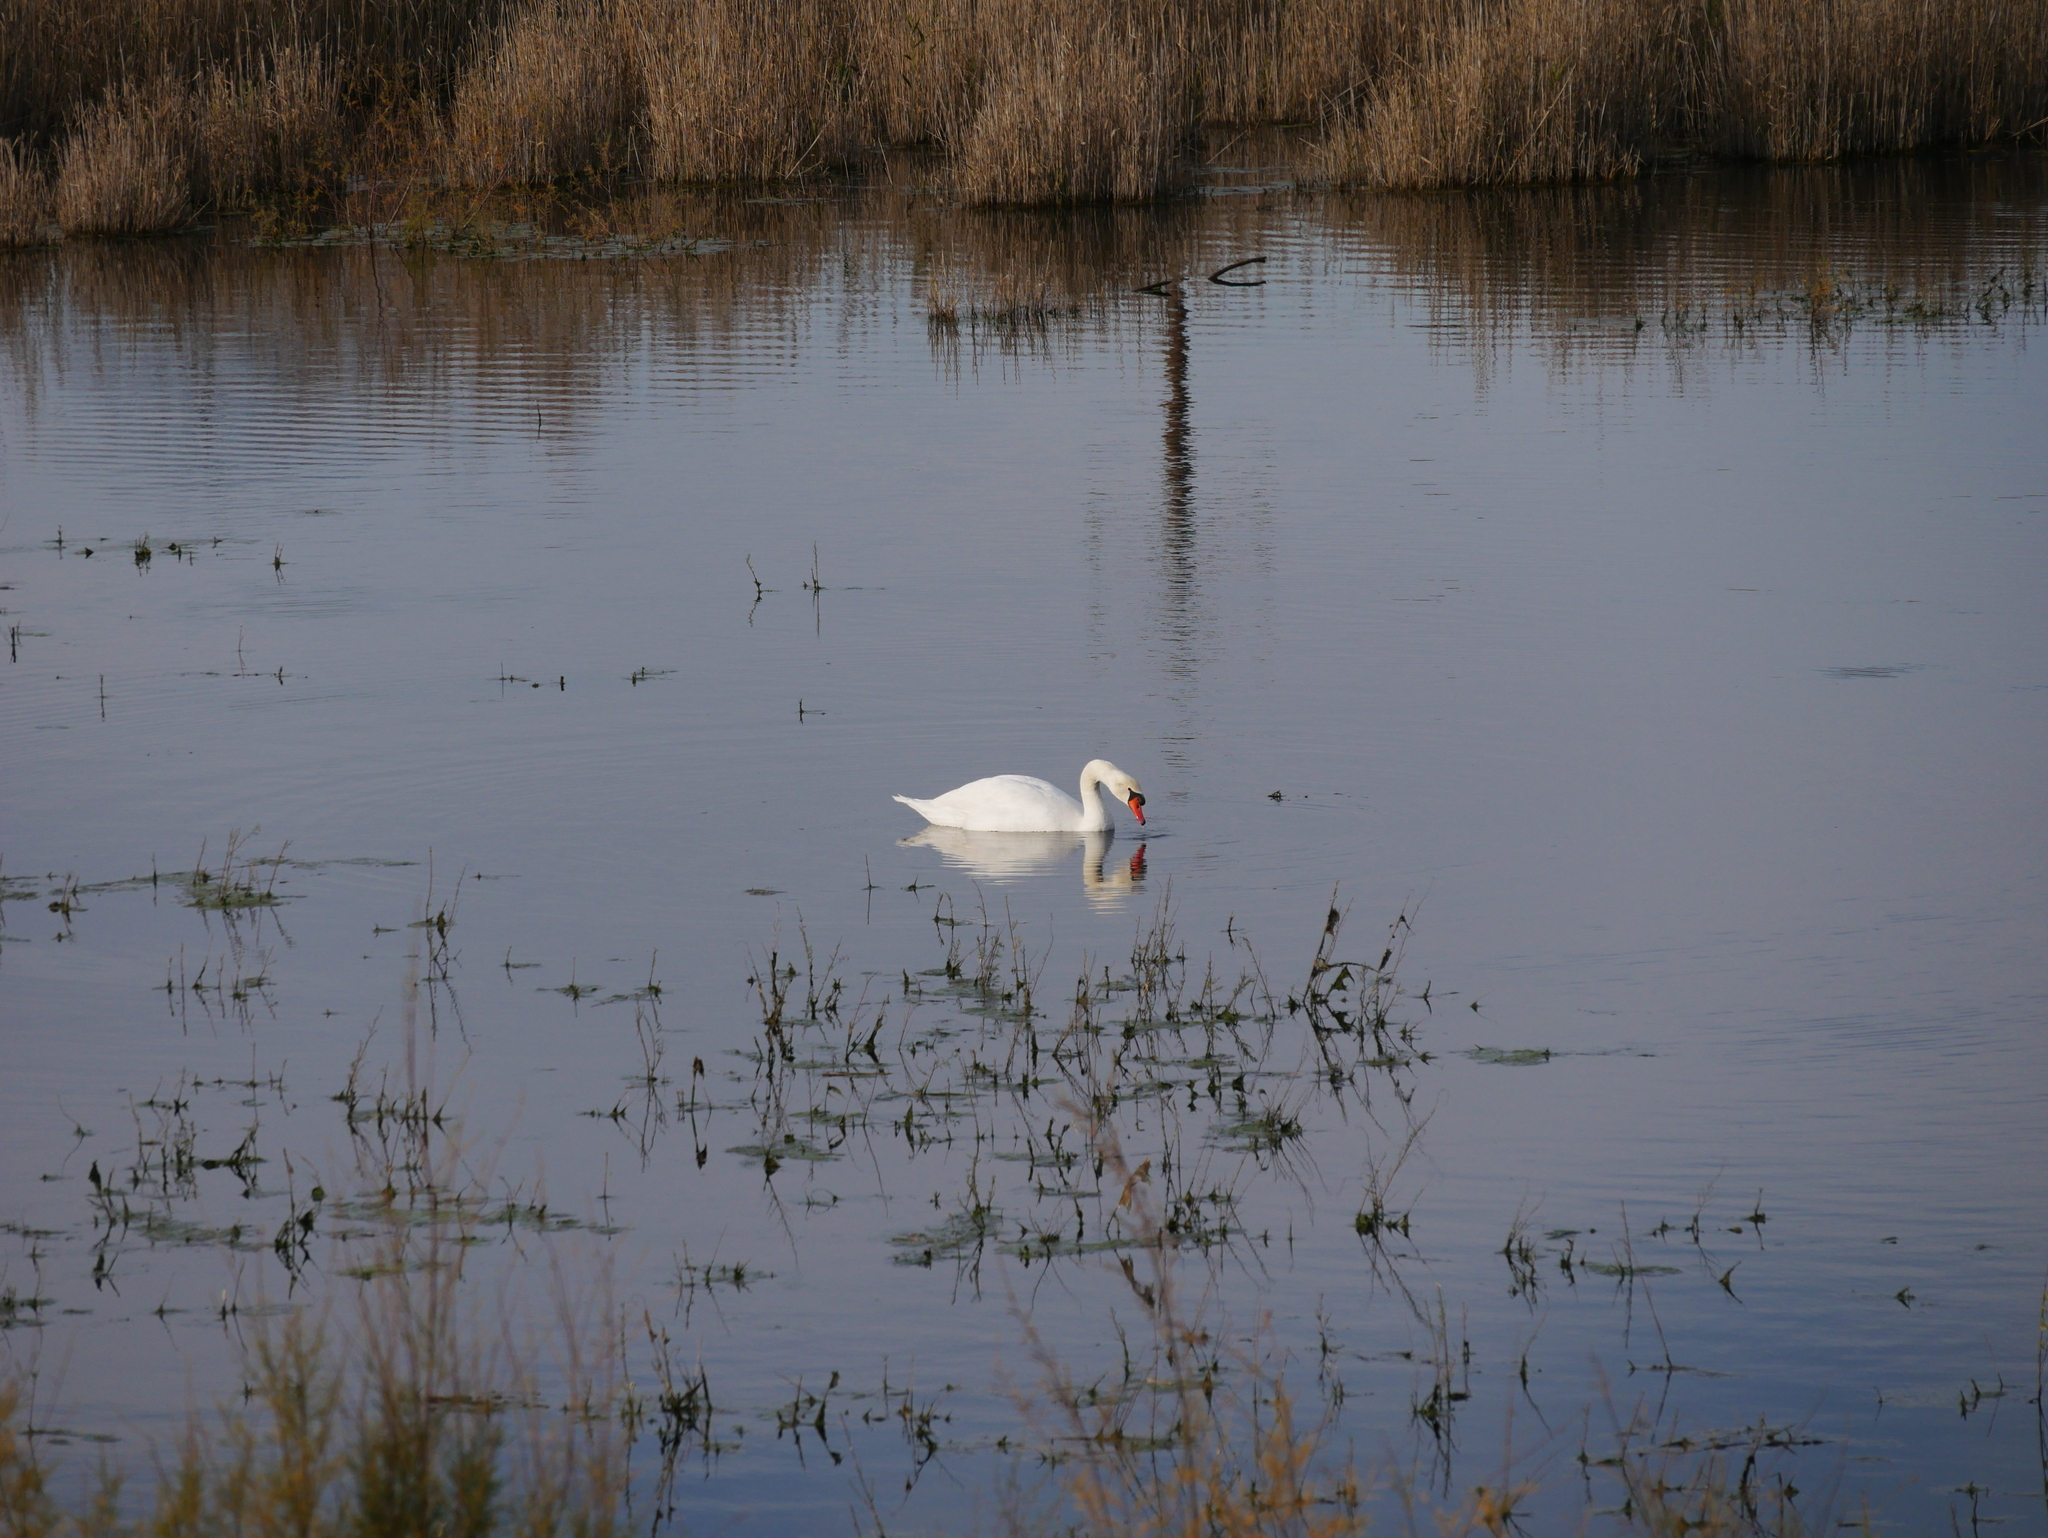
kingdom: Animalia
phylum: Chordata
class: Aves
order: Anseriformes
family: Anatidae
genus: Cygnus
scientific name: Cygnus olor
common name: Mute swan
